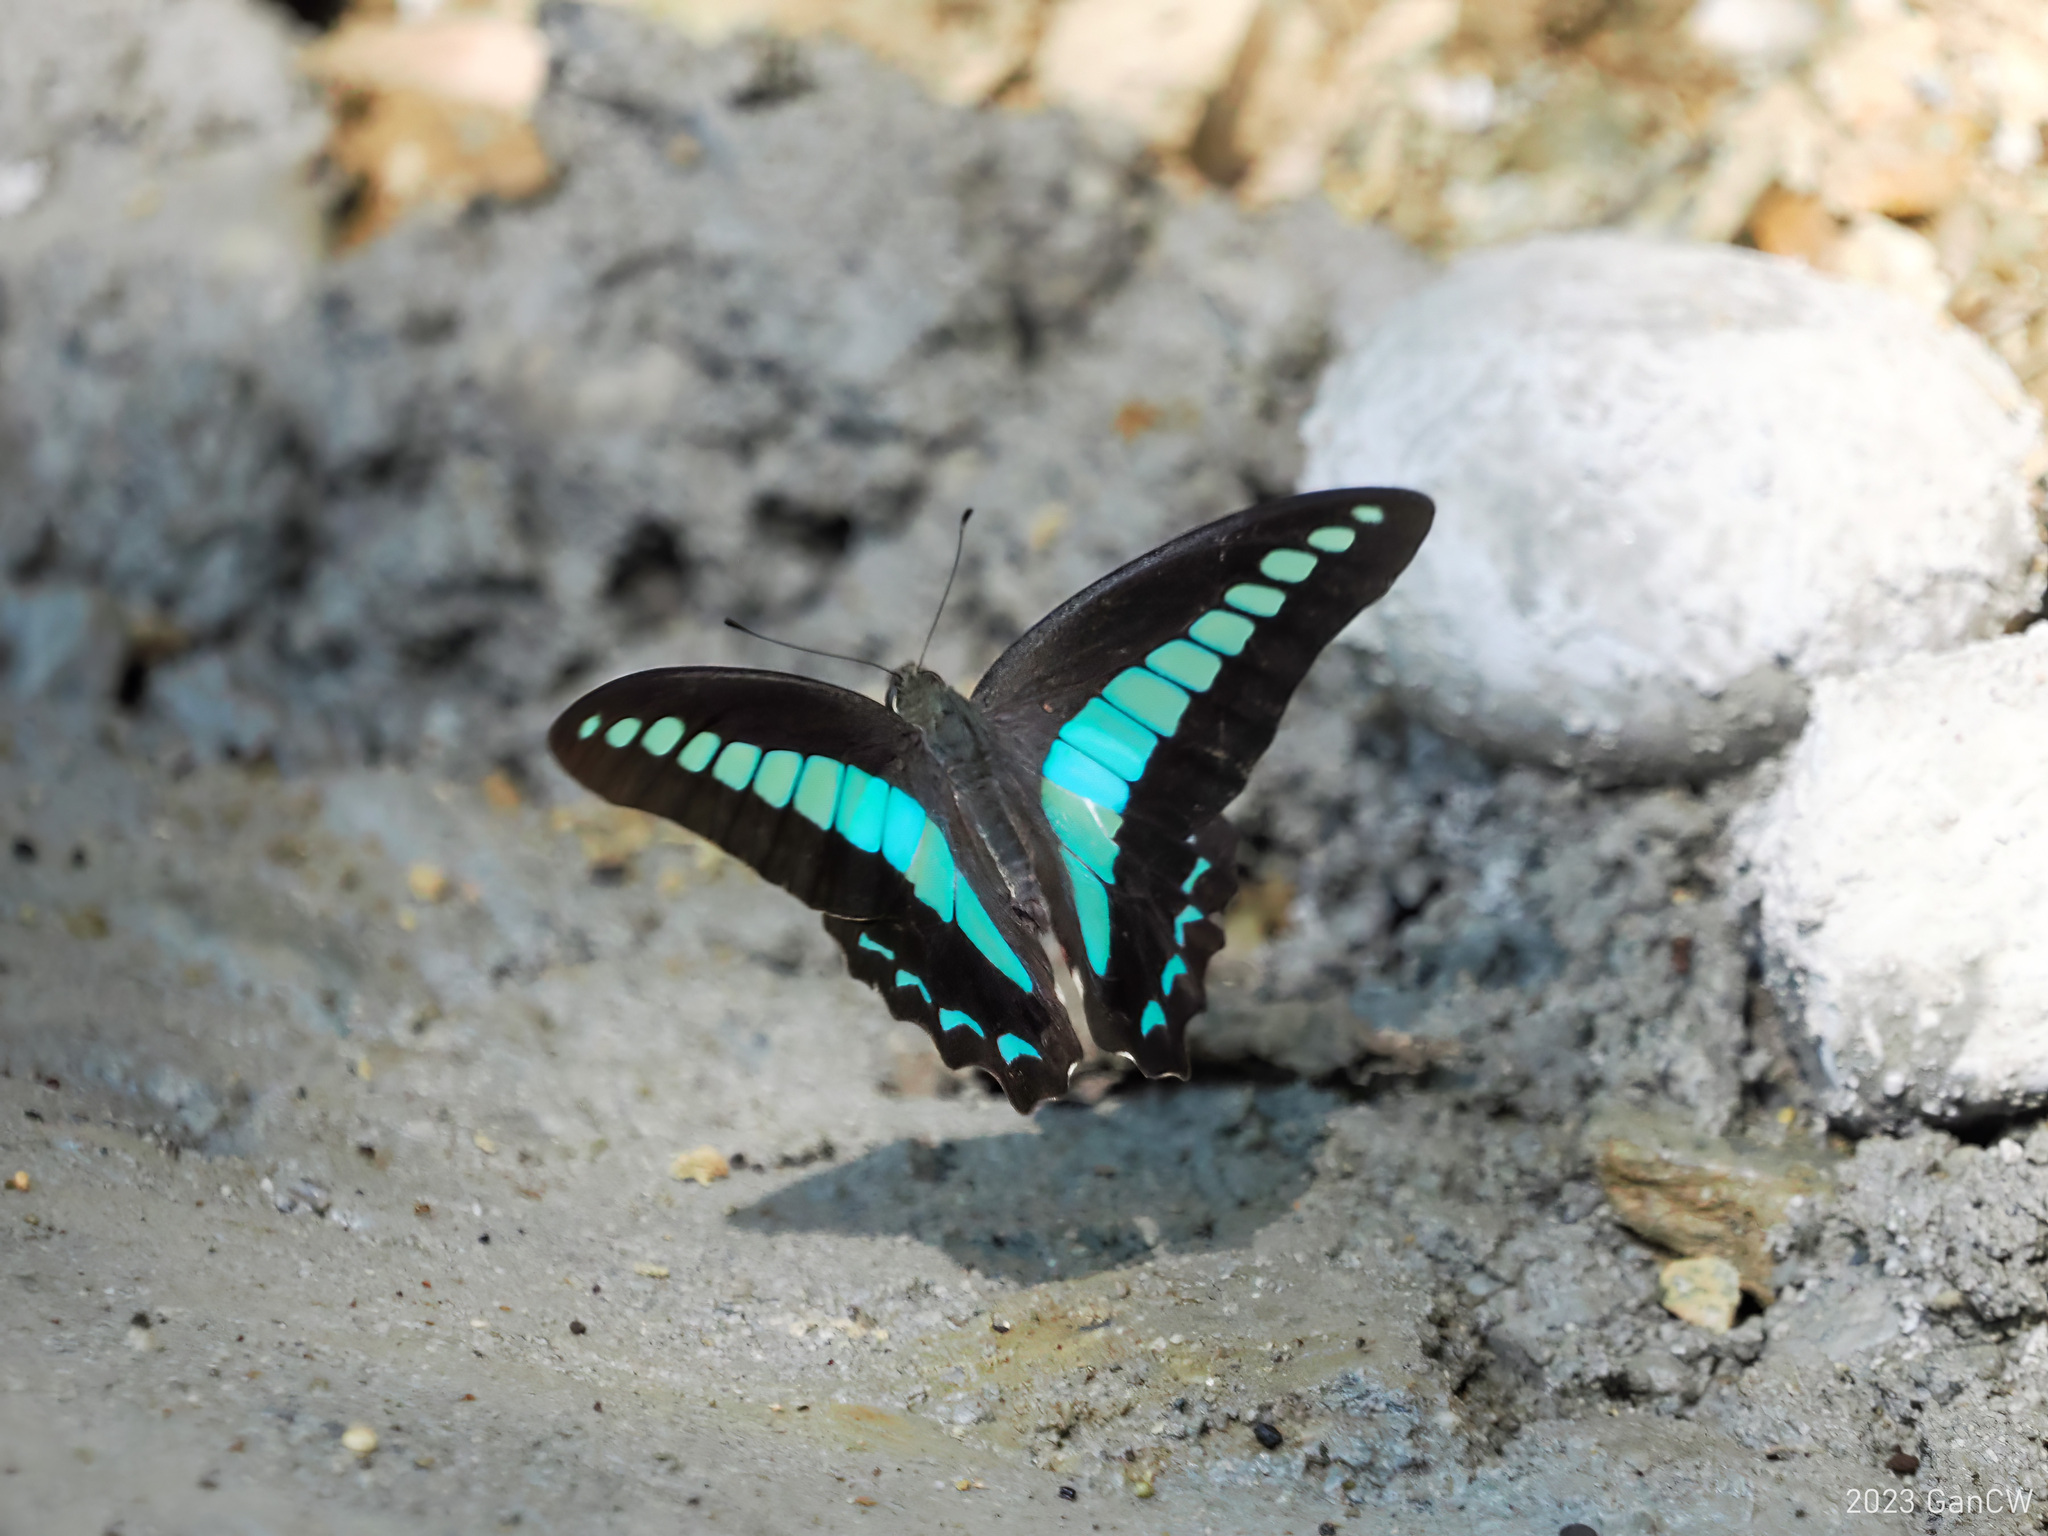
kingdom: Fungi
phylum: Ascomycota
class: Sordariomycetes
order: Microascales
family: Microascaceae
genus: Graphium
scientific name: Graphium sarpedon
